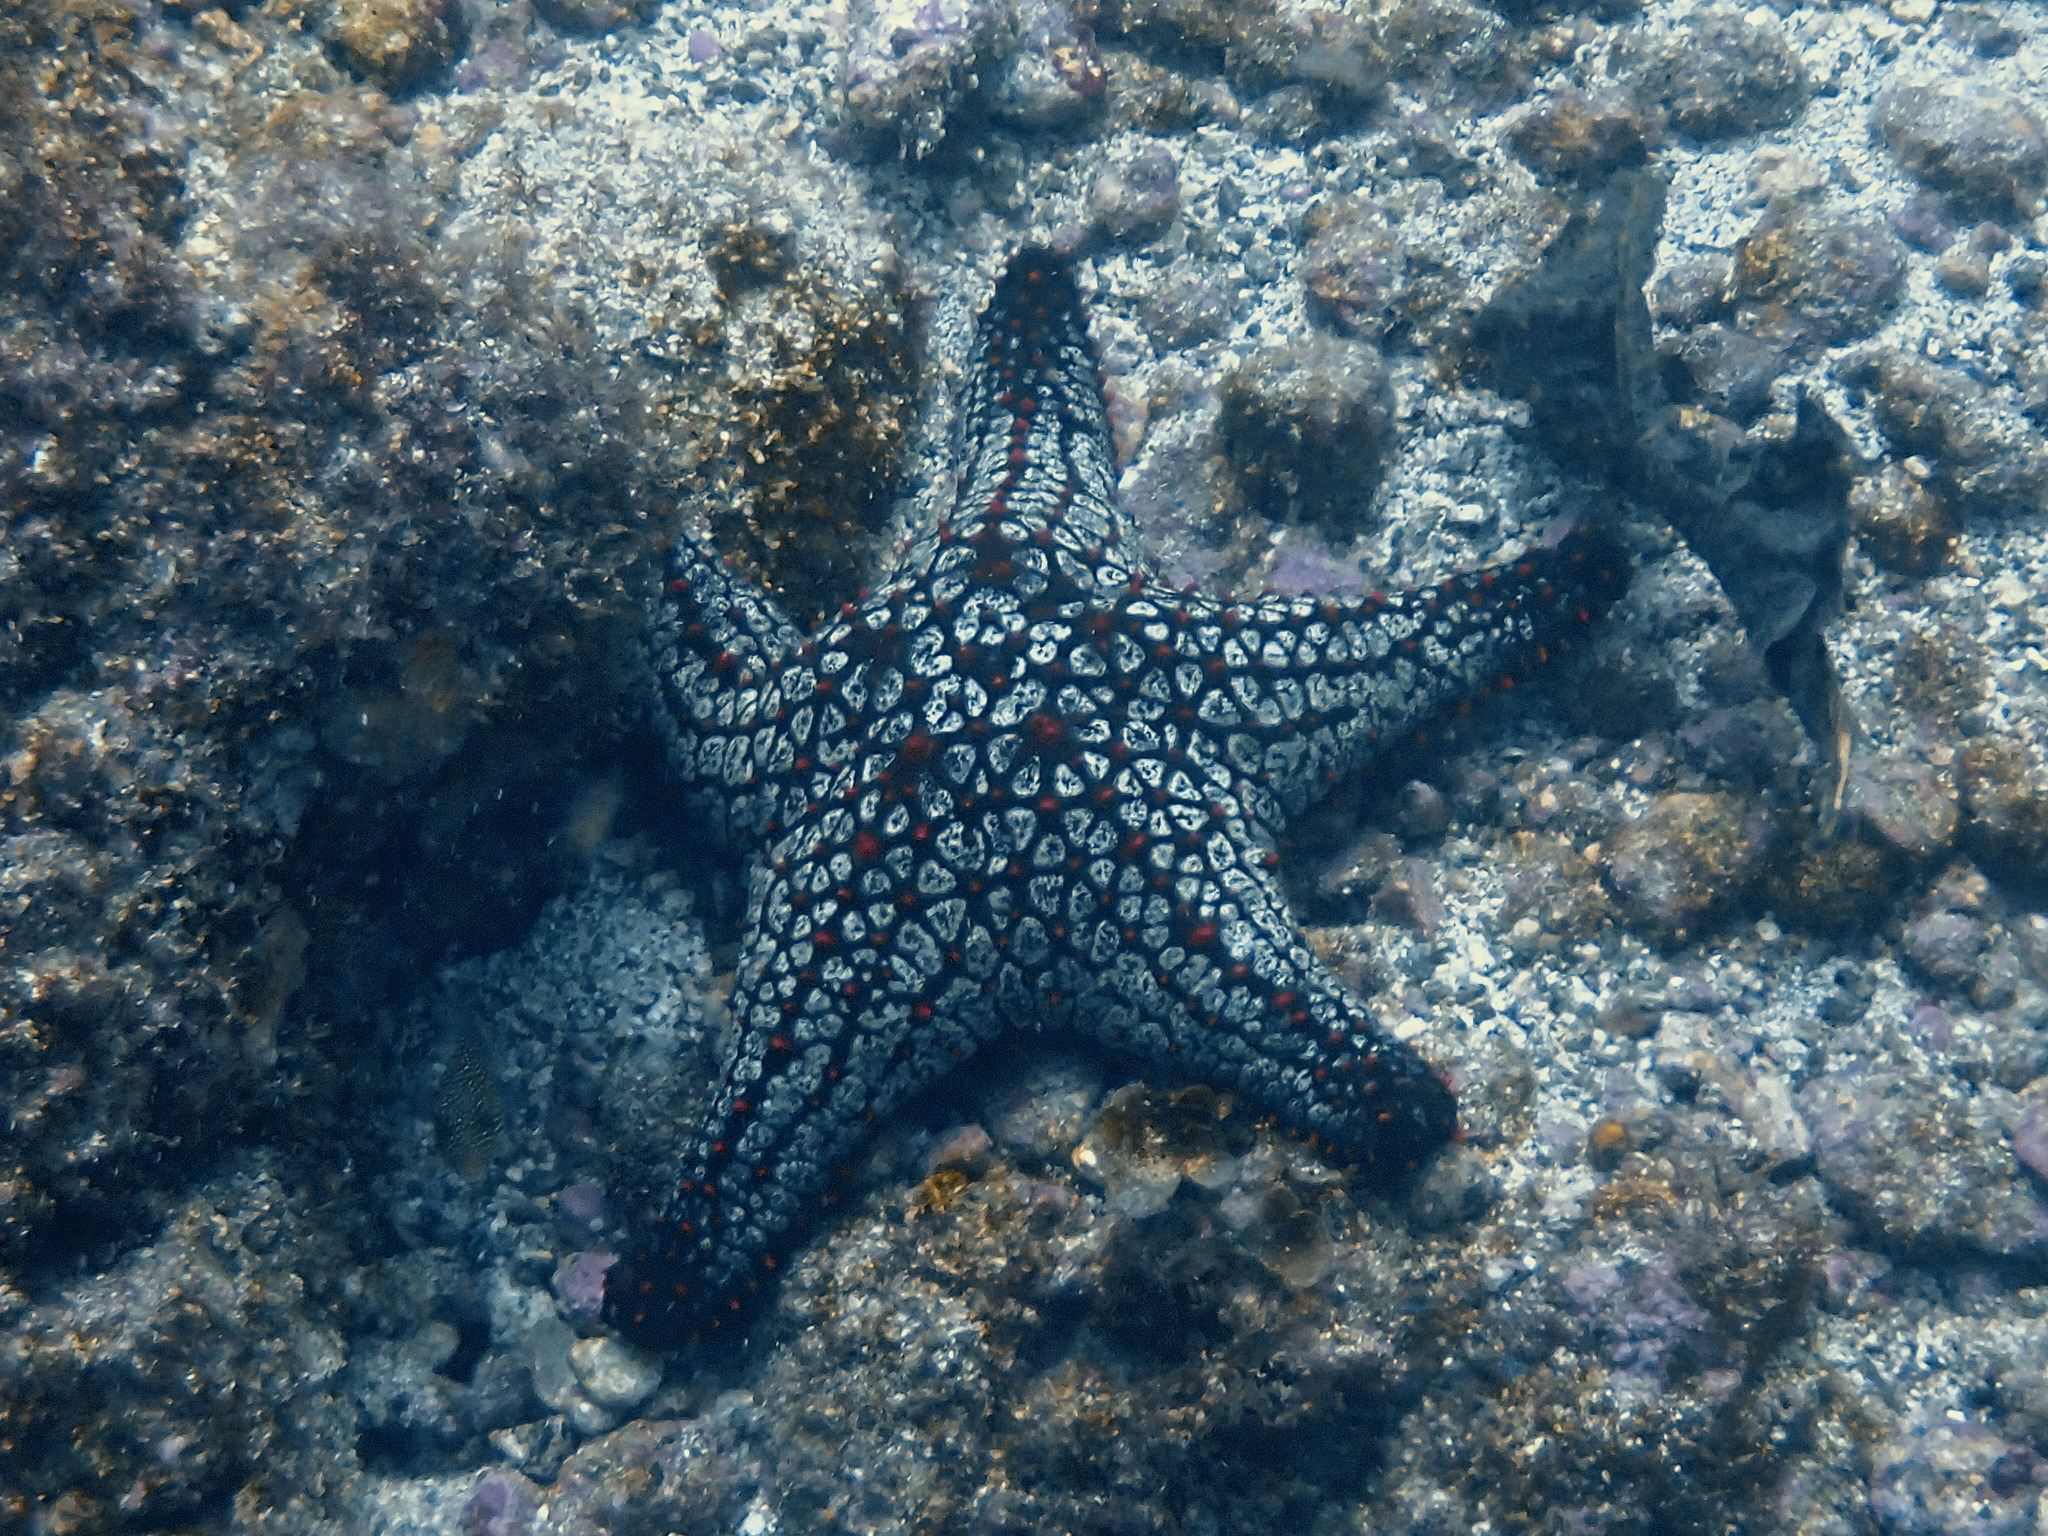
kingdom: Animalia
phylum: Echinodermata
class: Asteroidea
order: Valvatida
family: Oreasteridae
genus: Pentaceraster
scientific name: Pentaceraster cumingi
